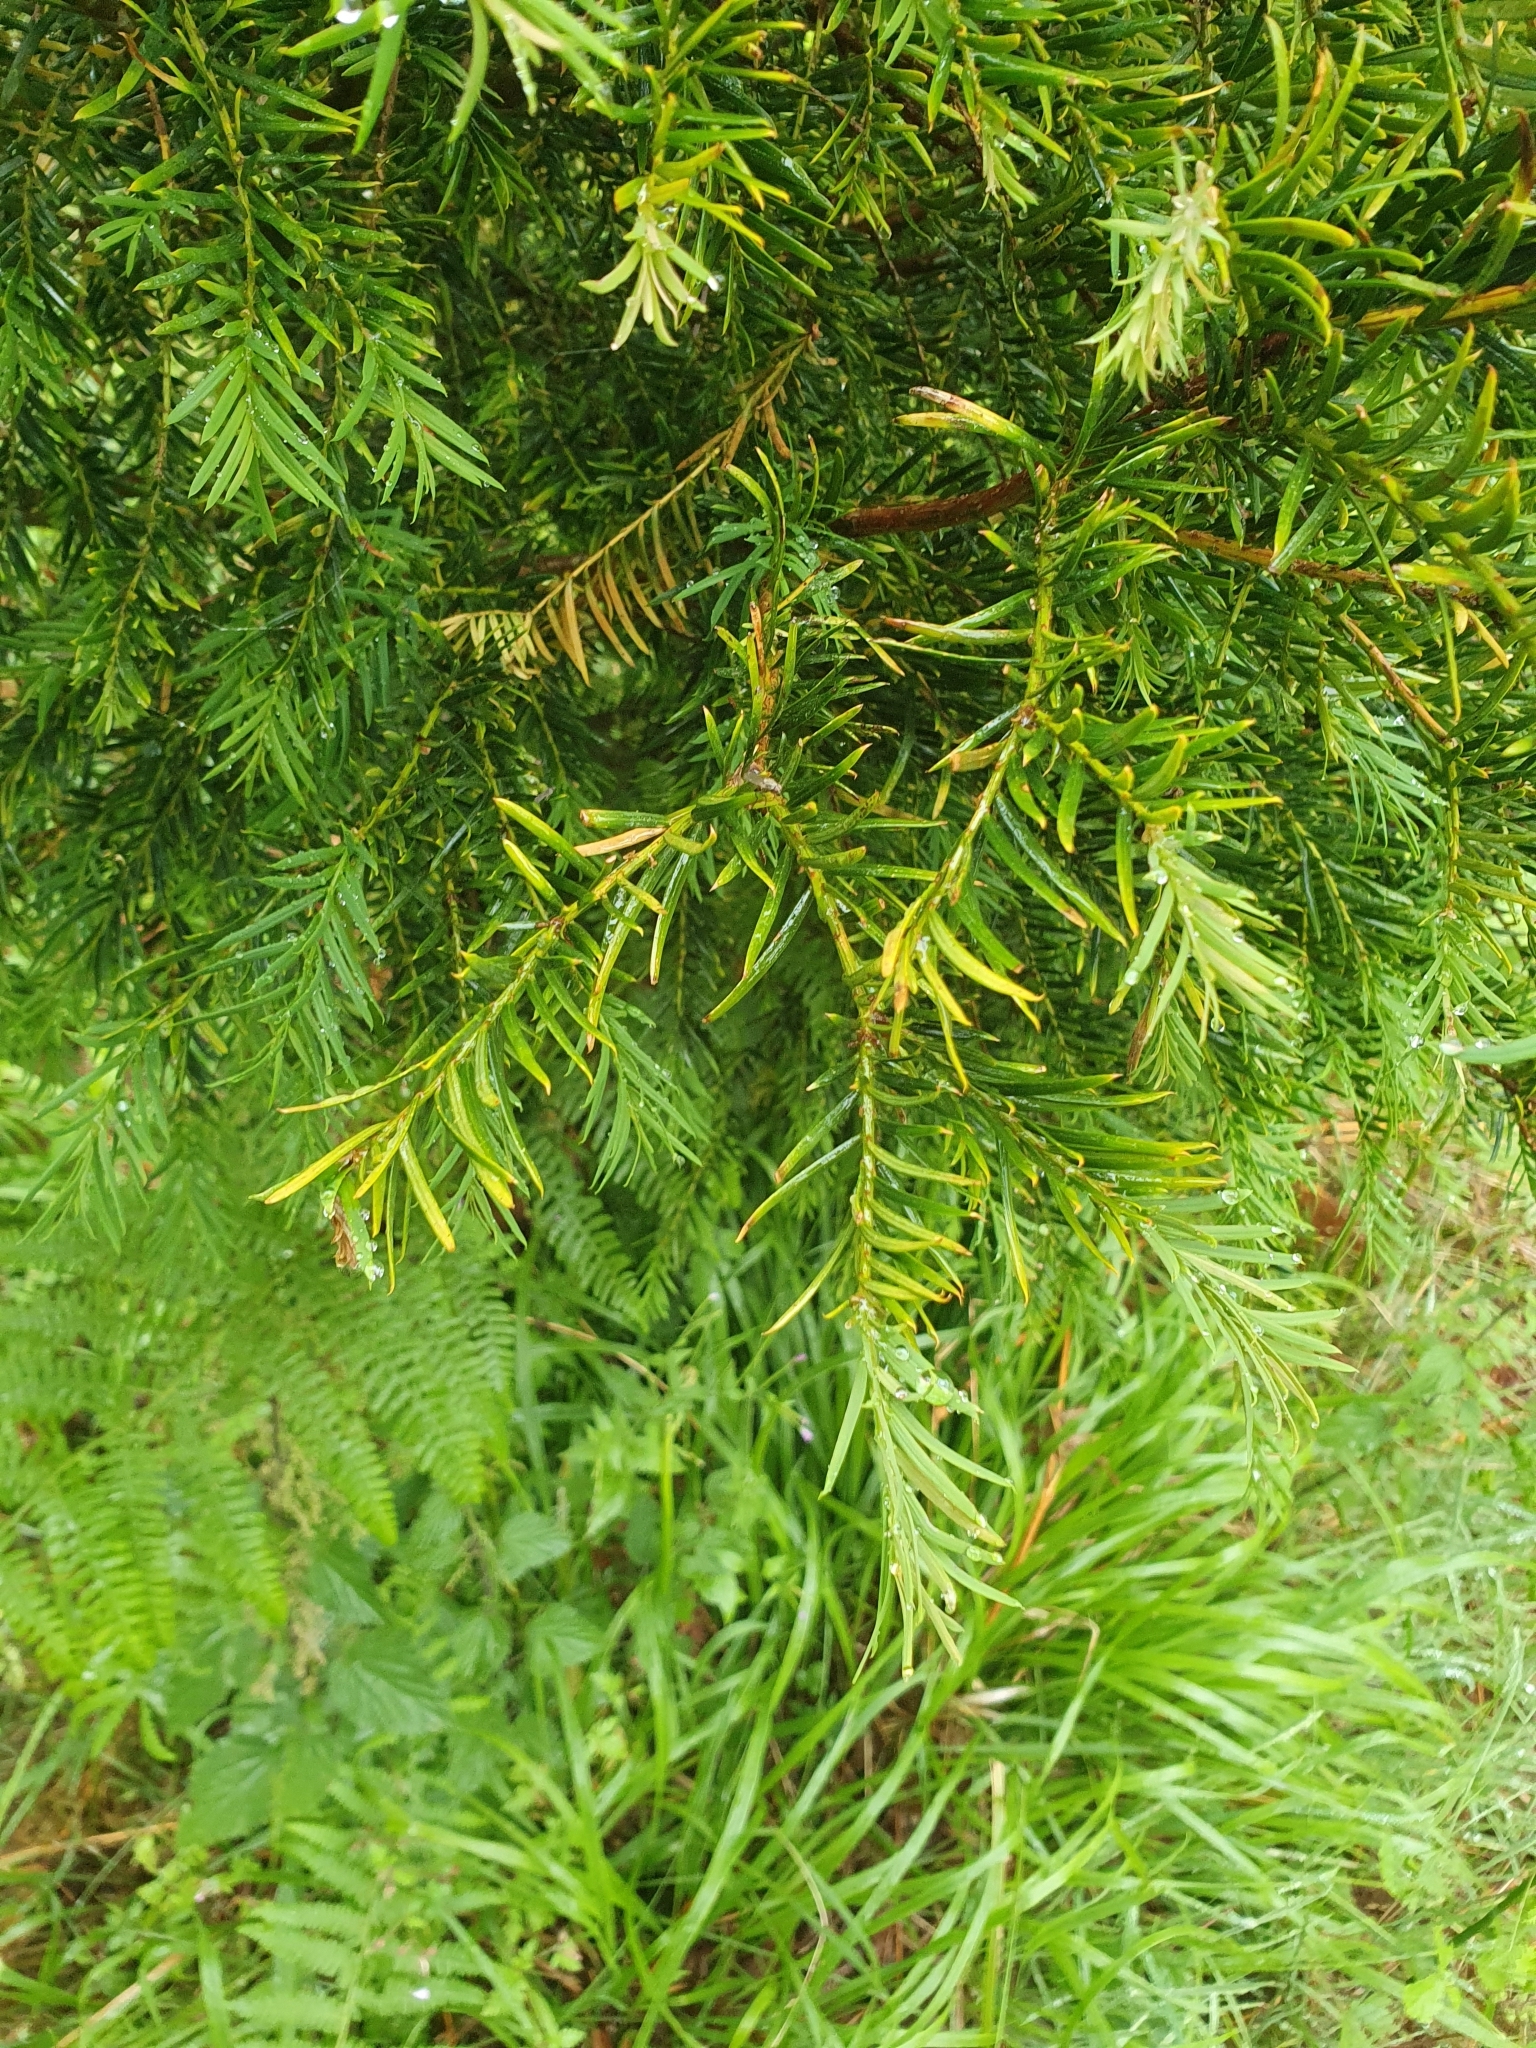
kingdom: Plantae
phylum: Tracheophyta
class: Pinopsida
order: Pinales
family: Taxaceae
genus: Taxus
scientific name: Taxus baccata
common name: Yew
